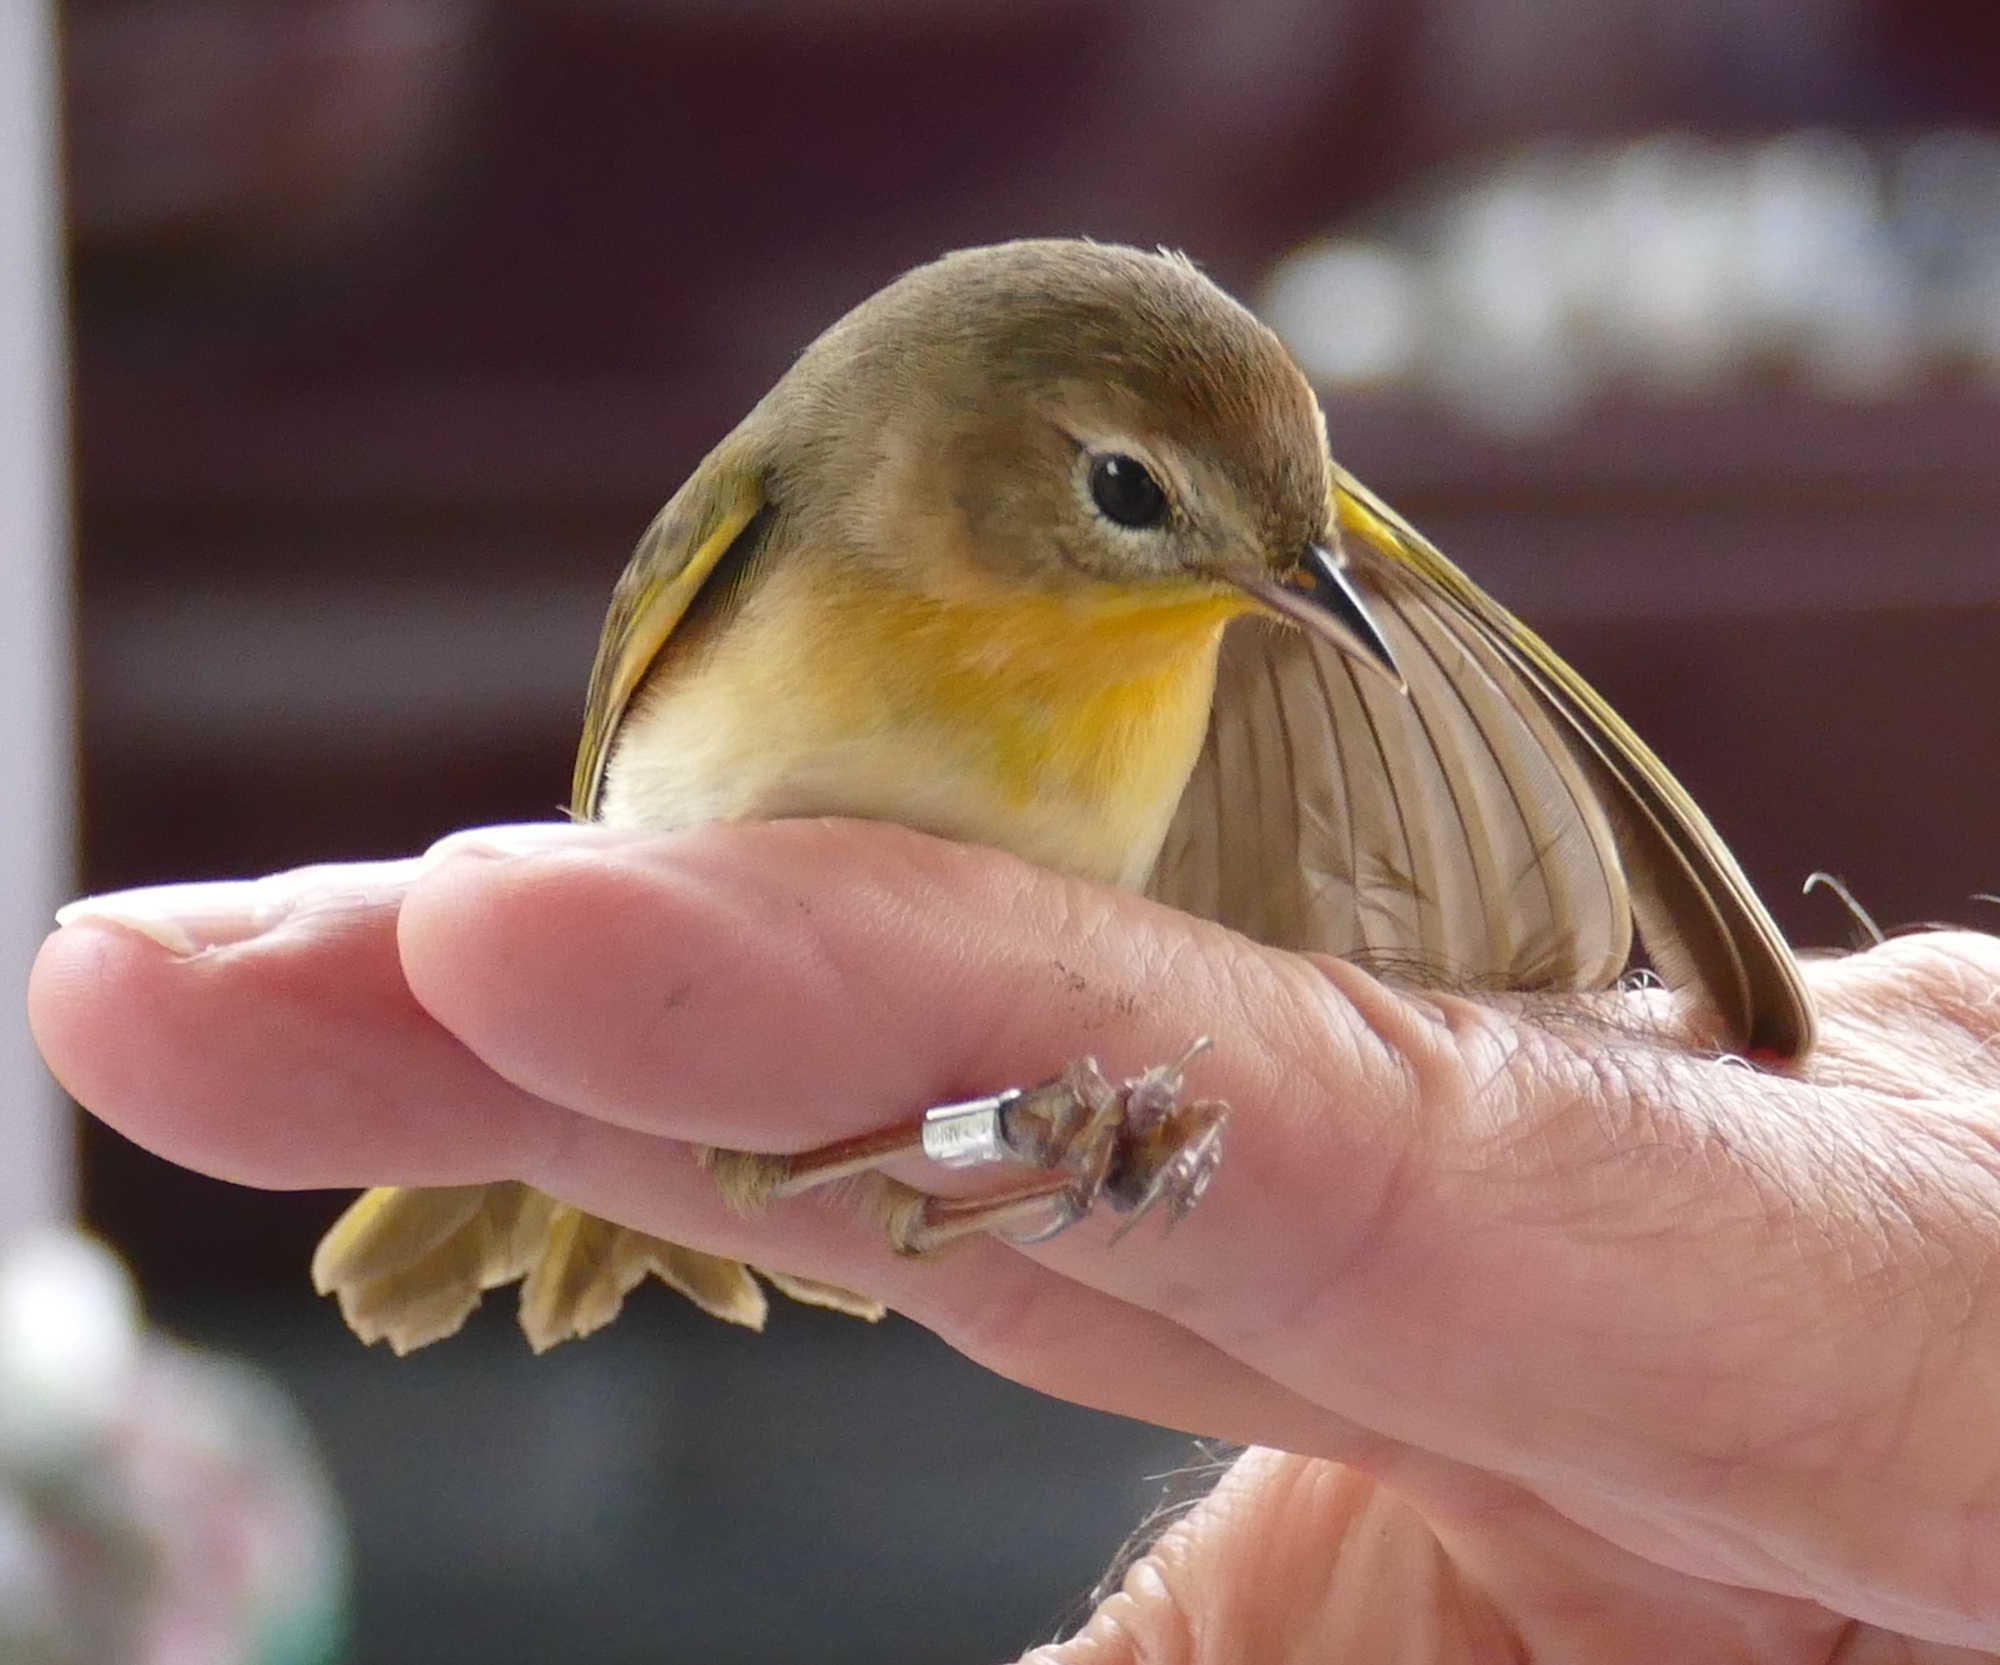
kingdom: Animalia
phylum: Chordata
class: Aves
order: Passeriformes
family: Parulidae
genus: Geothlypis
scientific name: Geothlypis trichas
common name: Common yellowthroat
